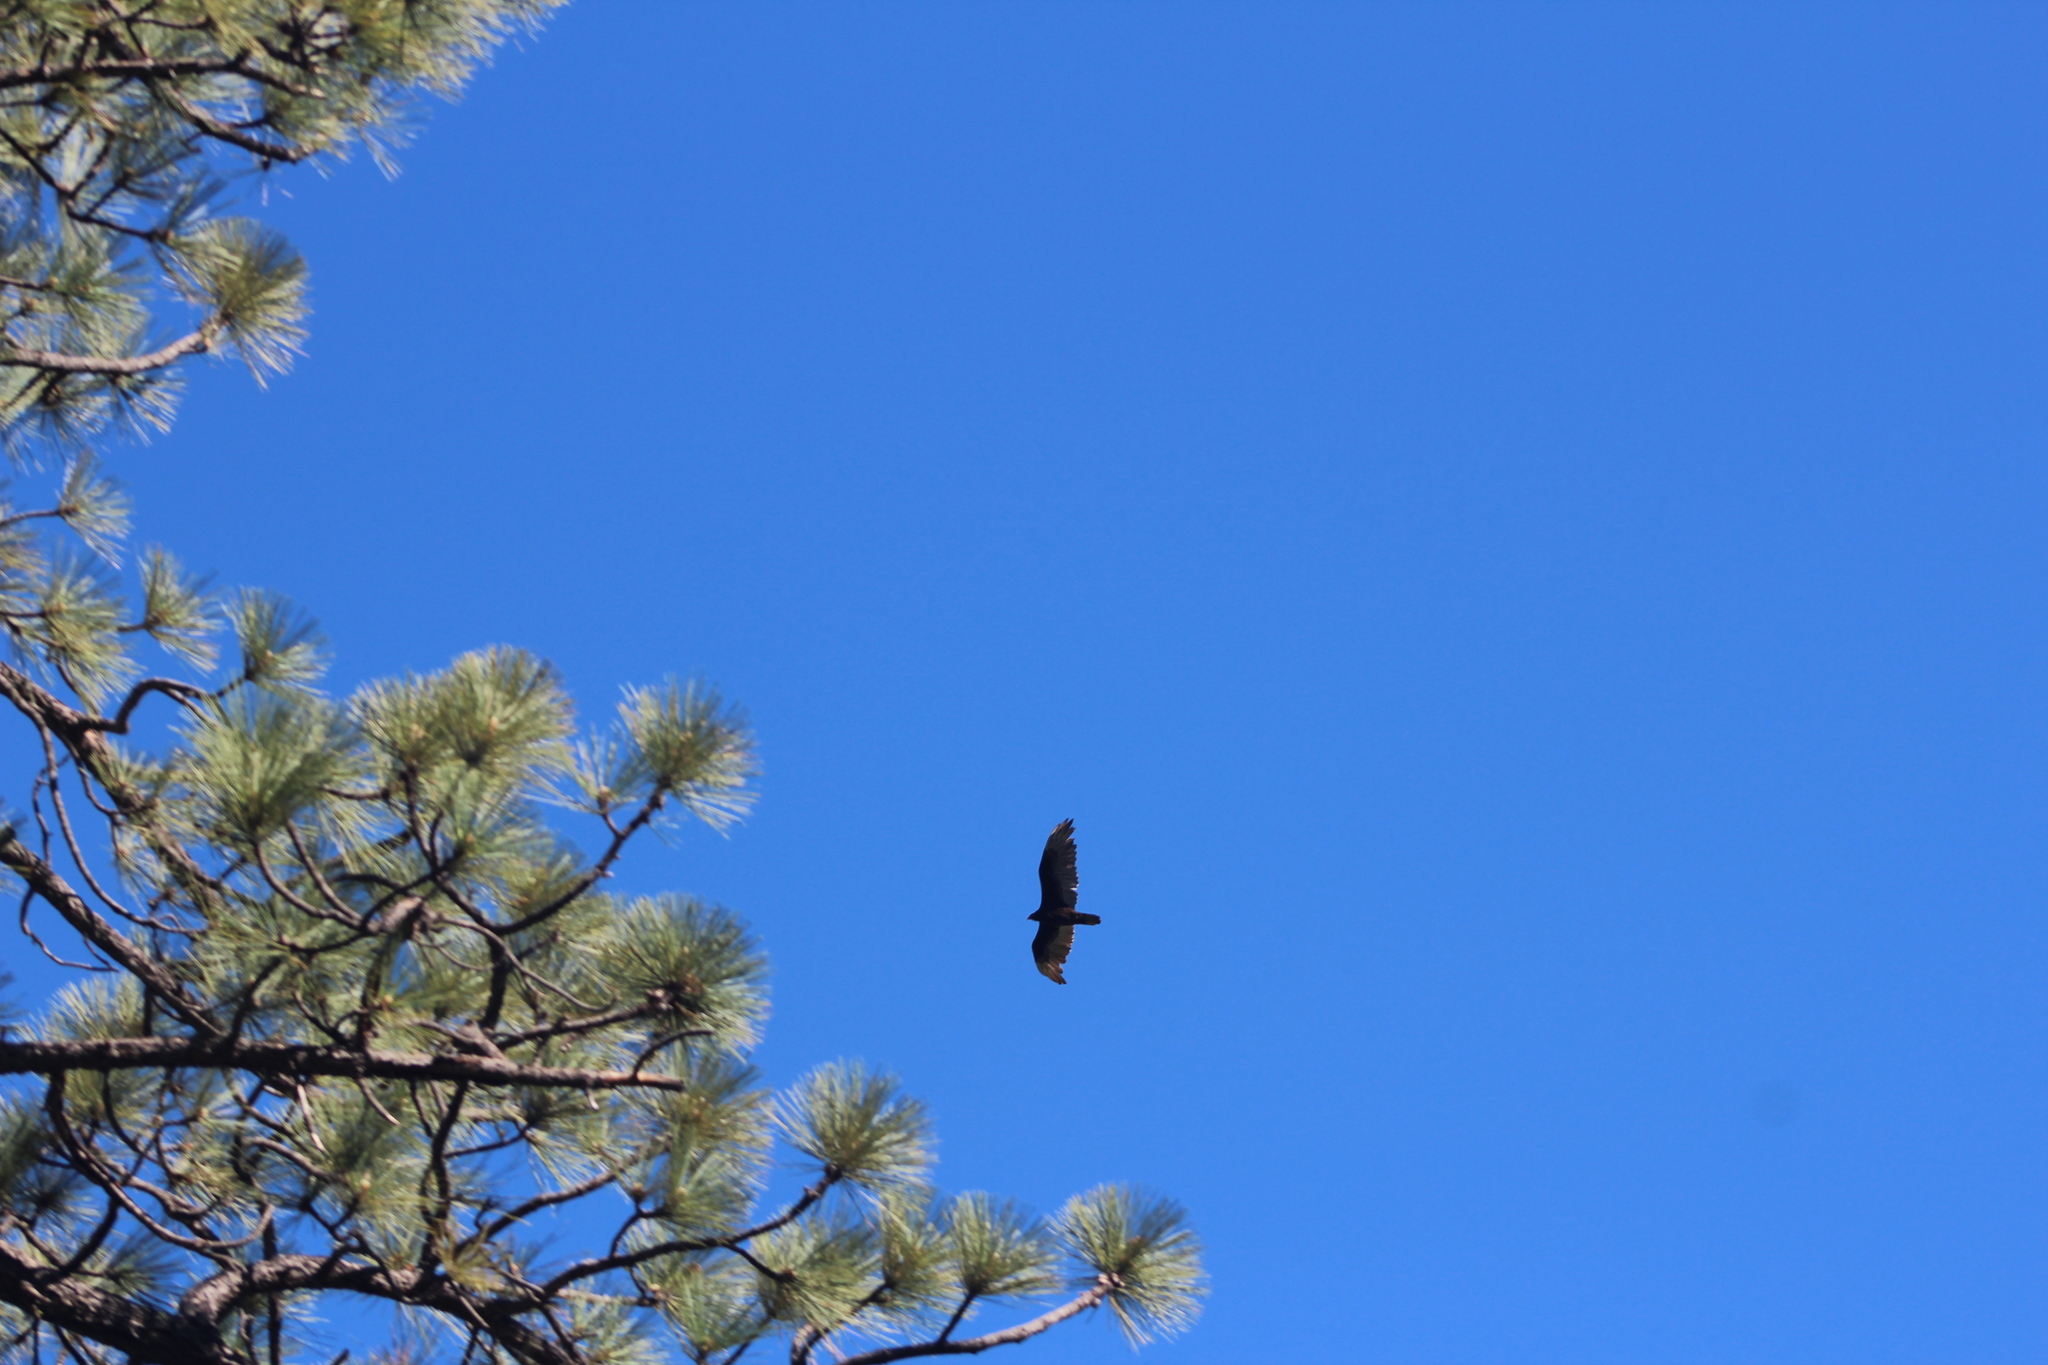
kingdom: Animalia
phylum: Chordata
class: Aves
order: Accipitriformes
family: Cathartidae
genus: Cathartes
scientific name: Cathartes aura
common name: Turkey vulture
